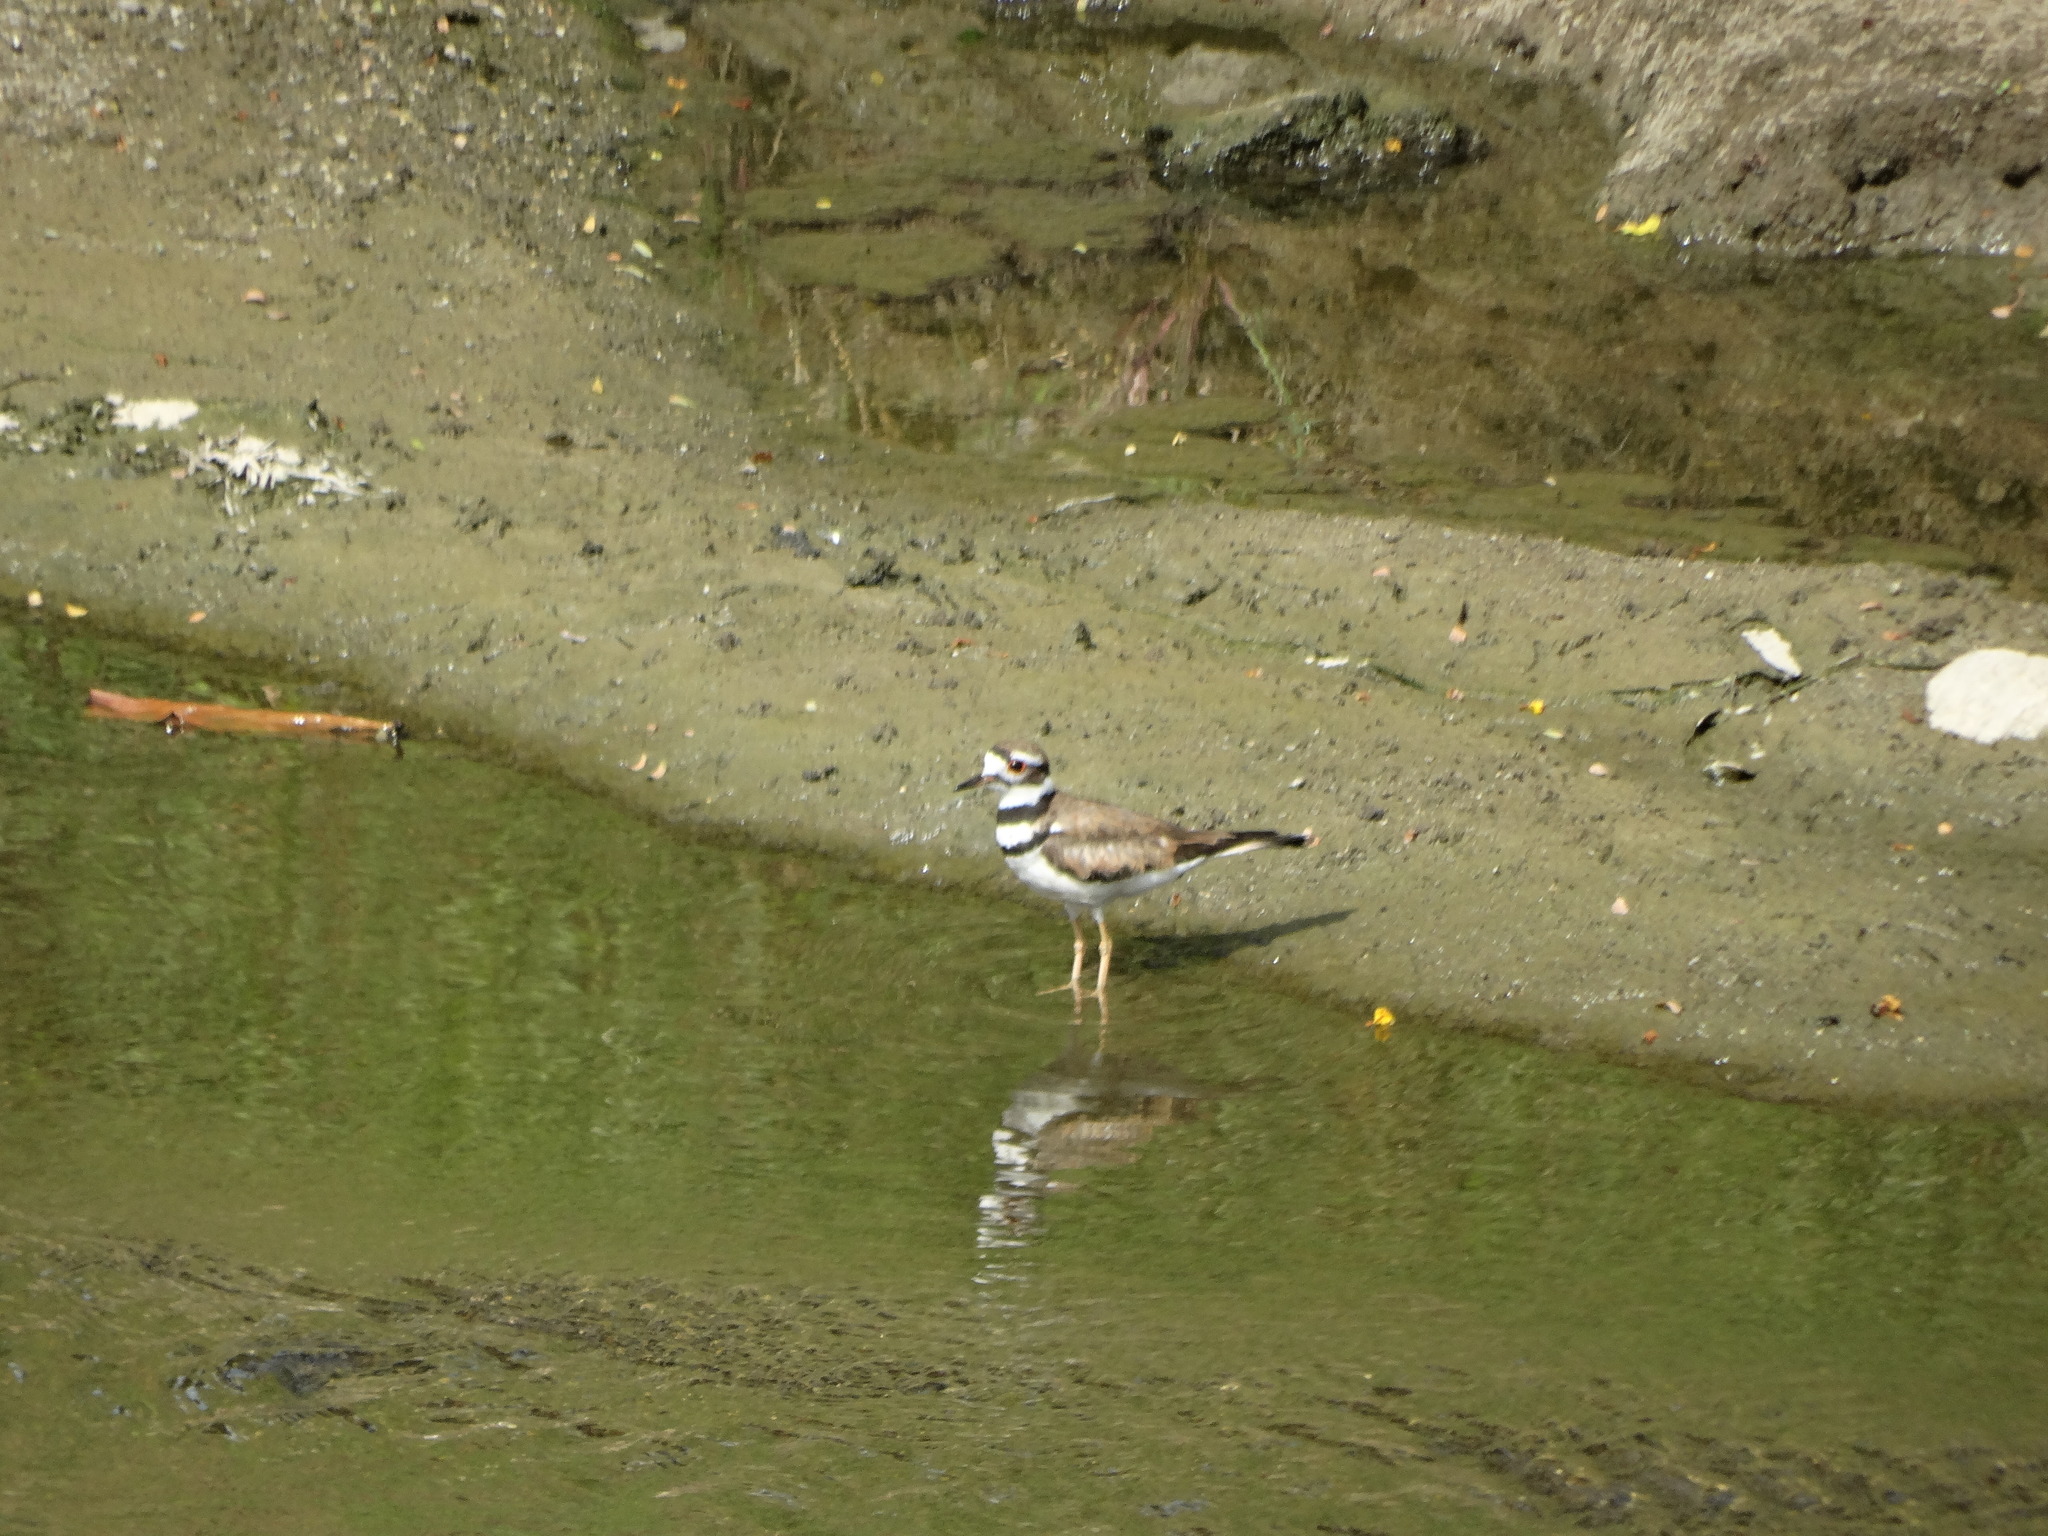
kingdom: Animalia
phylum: Chordata
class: Aves
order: Charadriiformes
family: Charadriidae
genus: Charadrius
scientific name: Charadrius vociferus
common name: Killdeer
